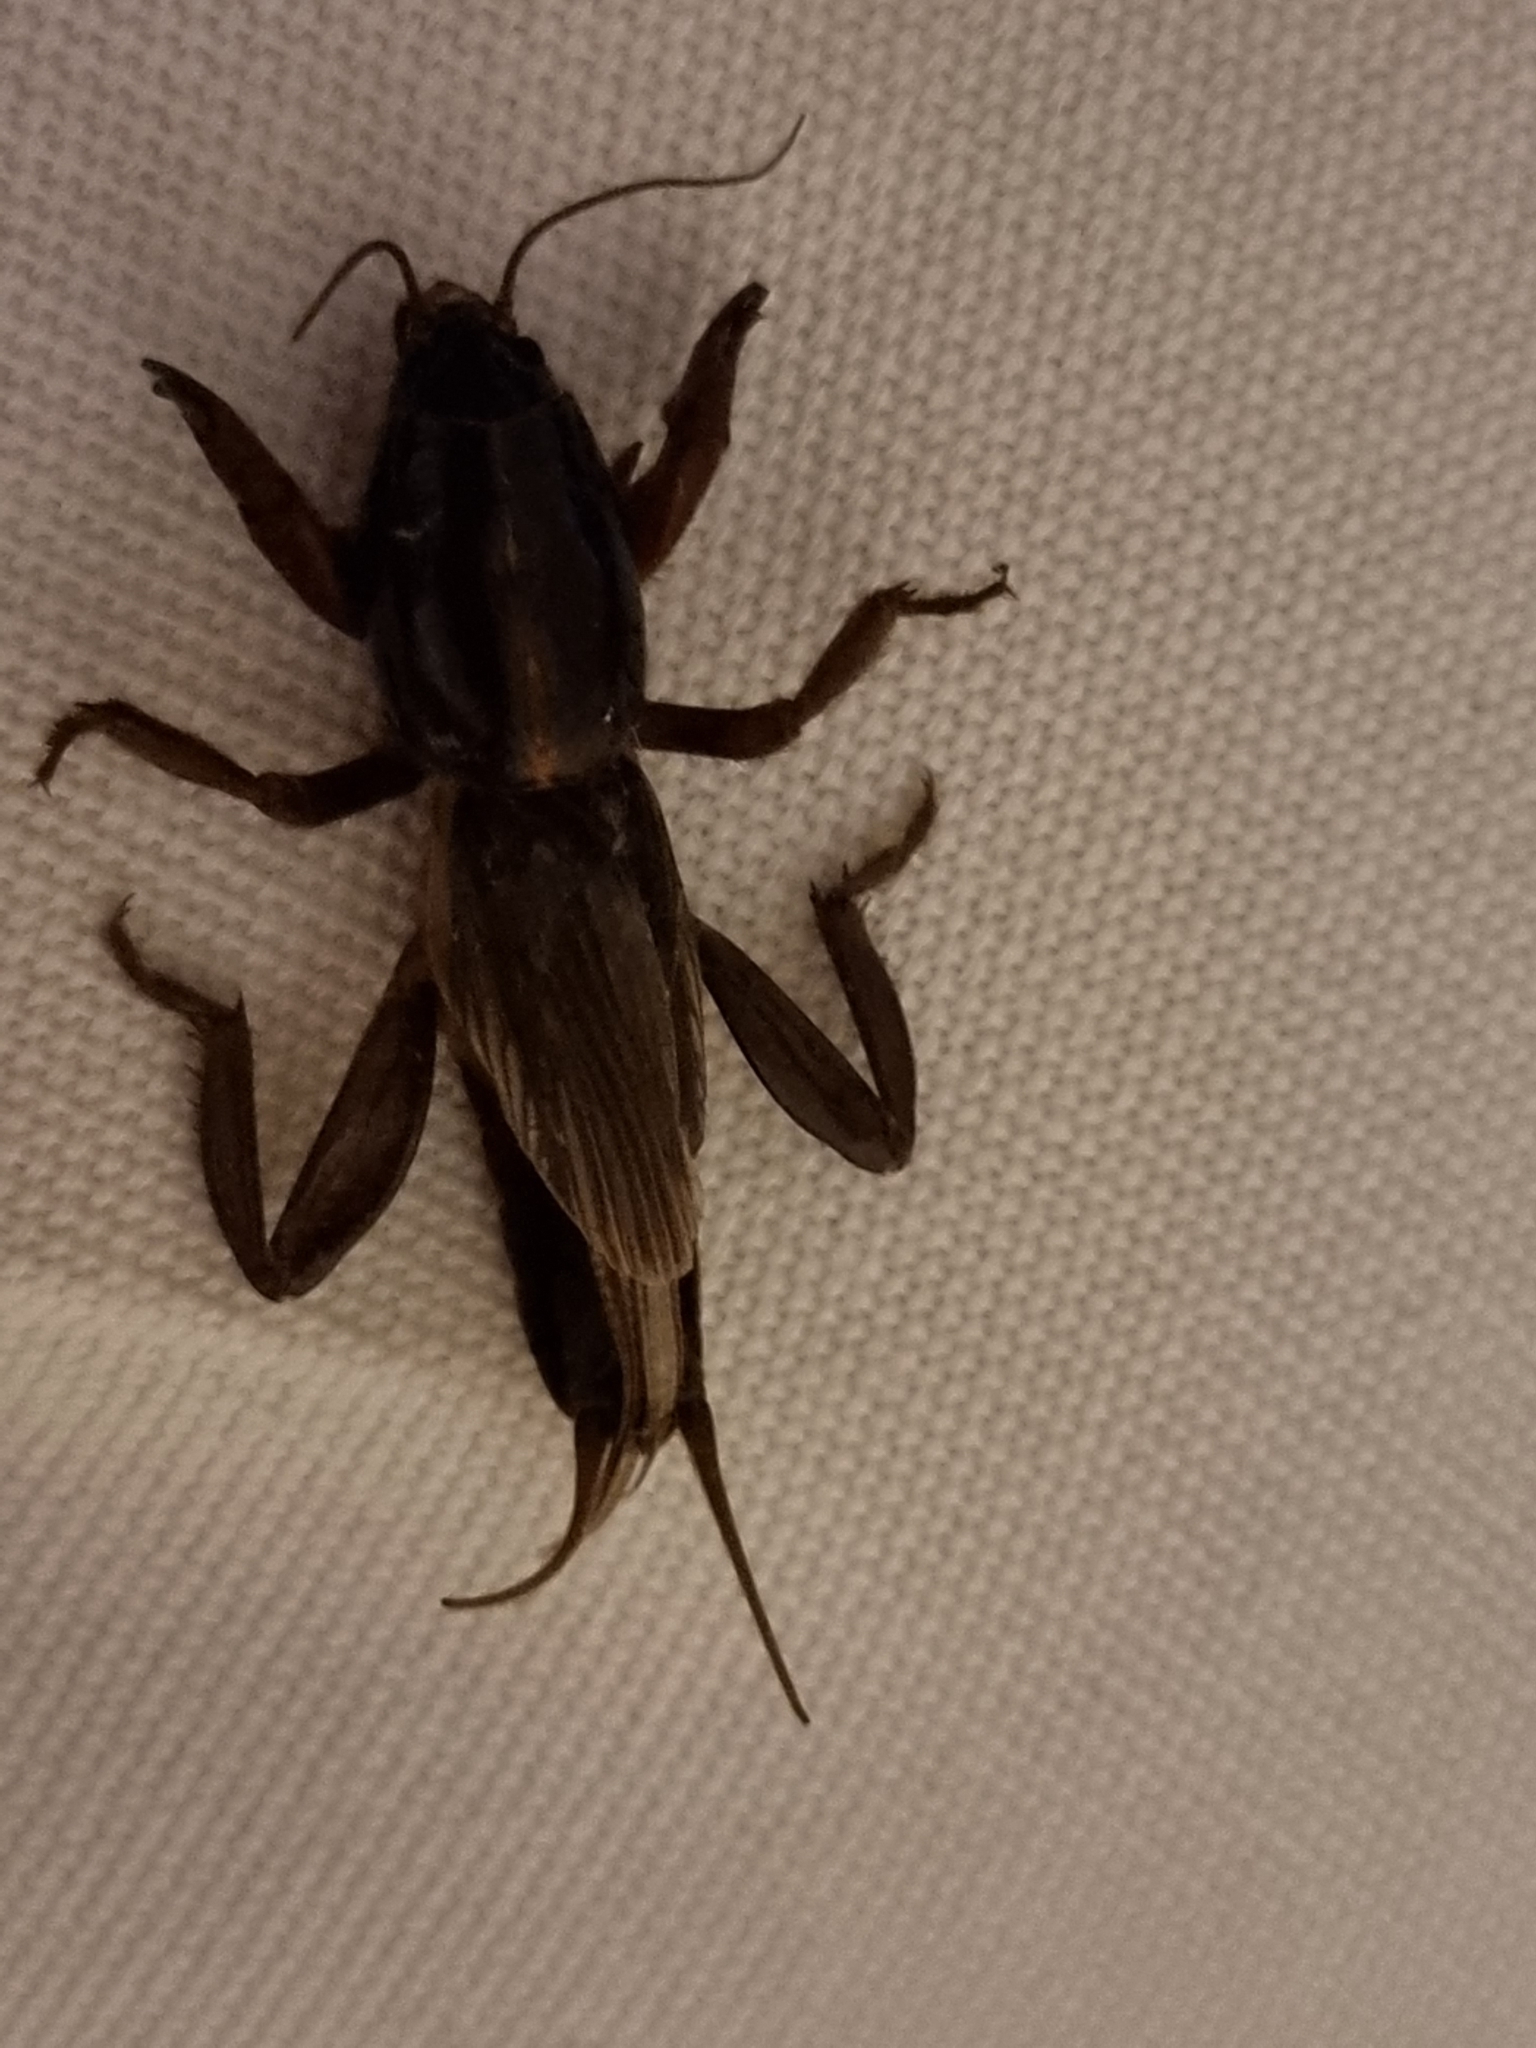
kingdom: Animalia
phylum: Arthropoda
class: Insecta
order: Orthoptera
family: Gryllotalpidae
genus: Gryllotalpa
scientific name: Gryllotalpa australis
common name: Southern mole cricket
